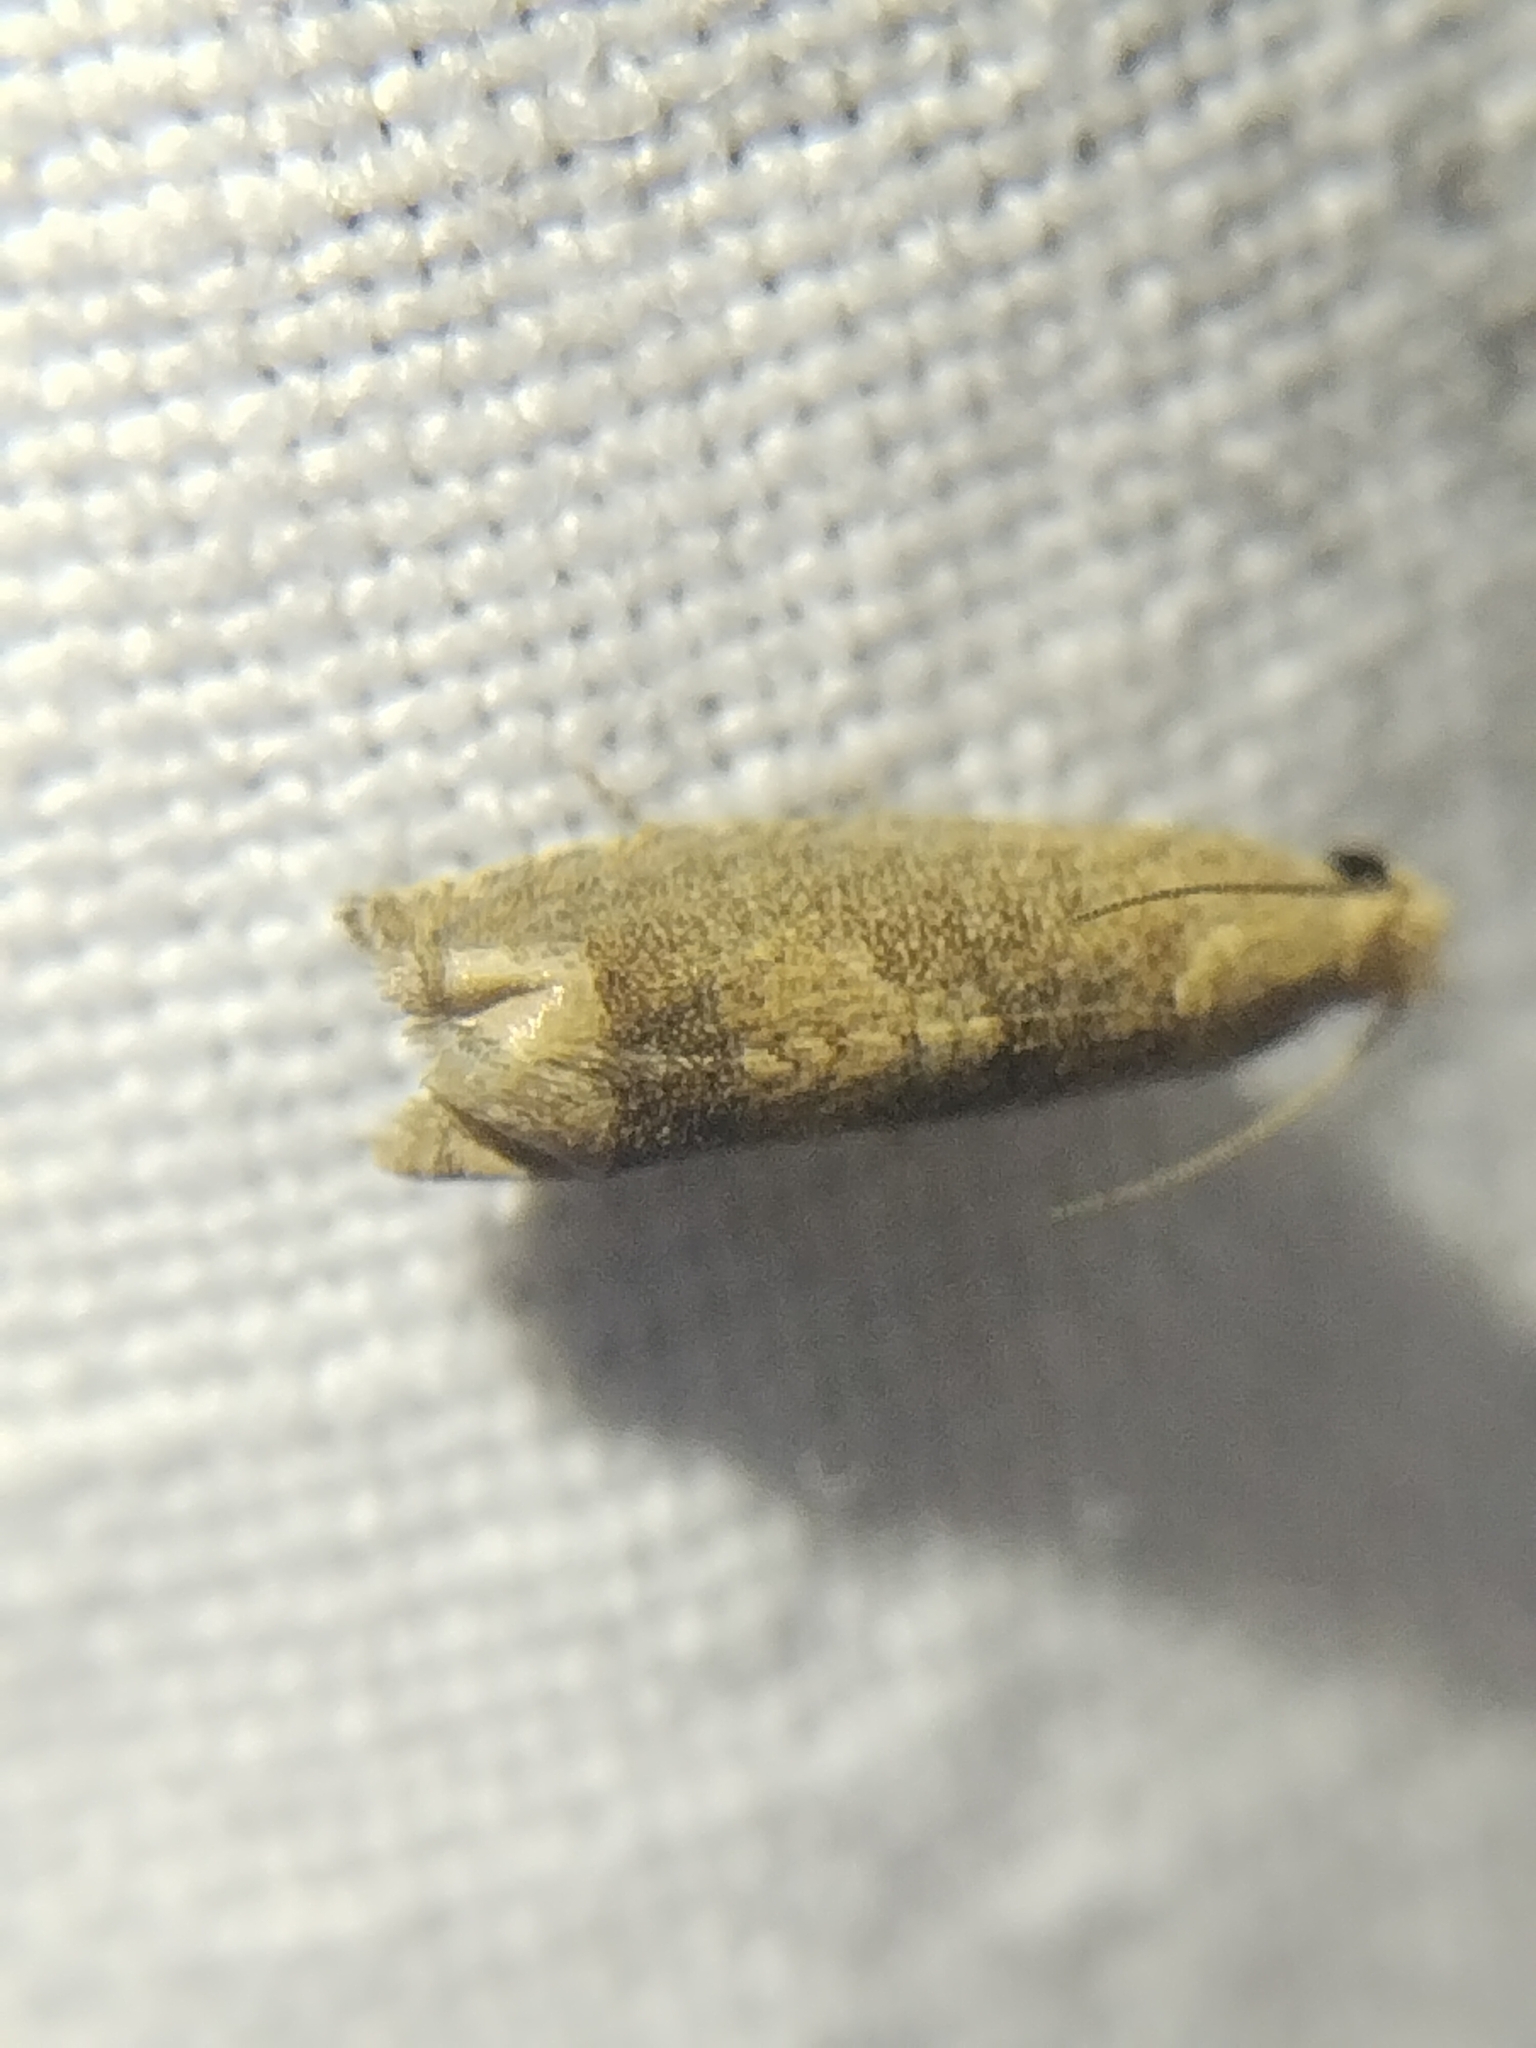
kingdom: Animalia
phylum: Arthropoda
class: Insecta
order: Lepidoptera
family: Tortricidae
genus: Epiblema
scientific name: Epiblema strenuana
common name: Ragweed borer moth
